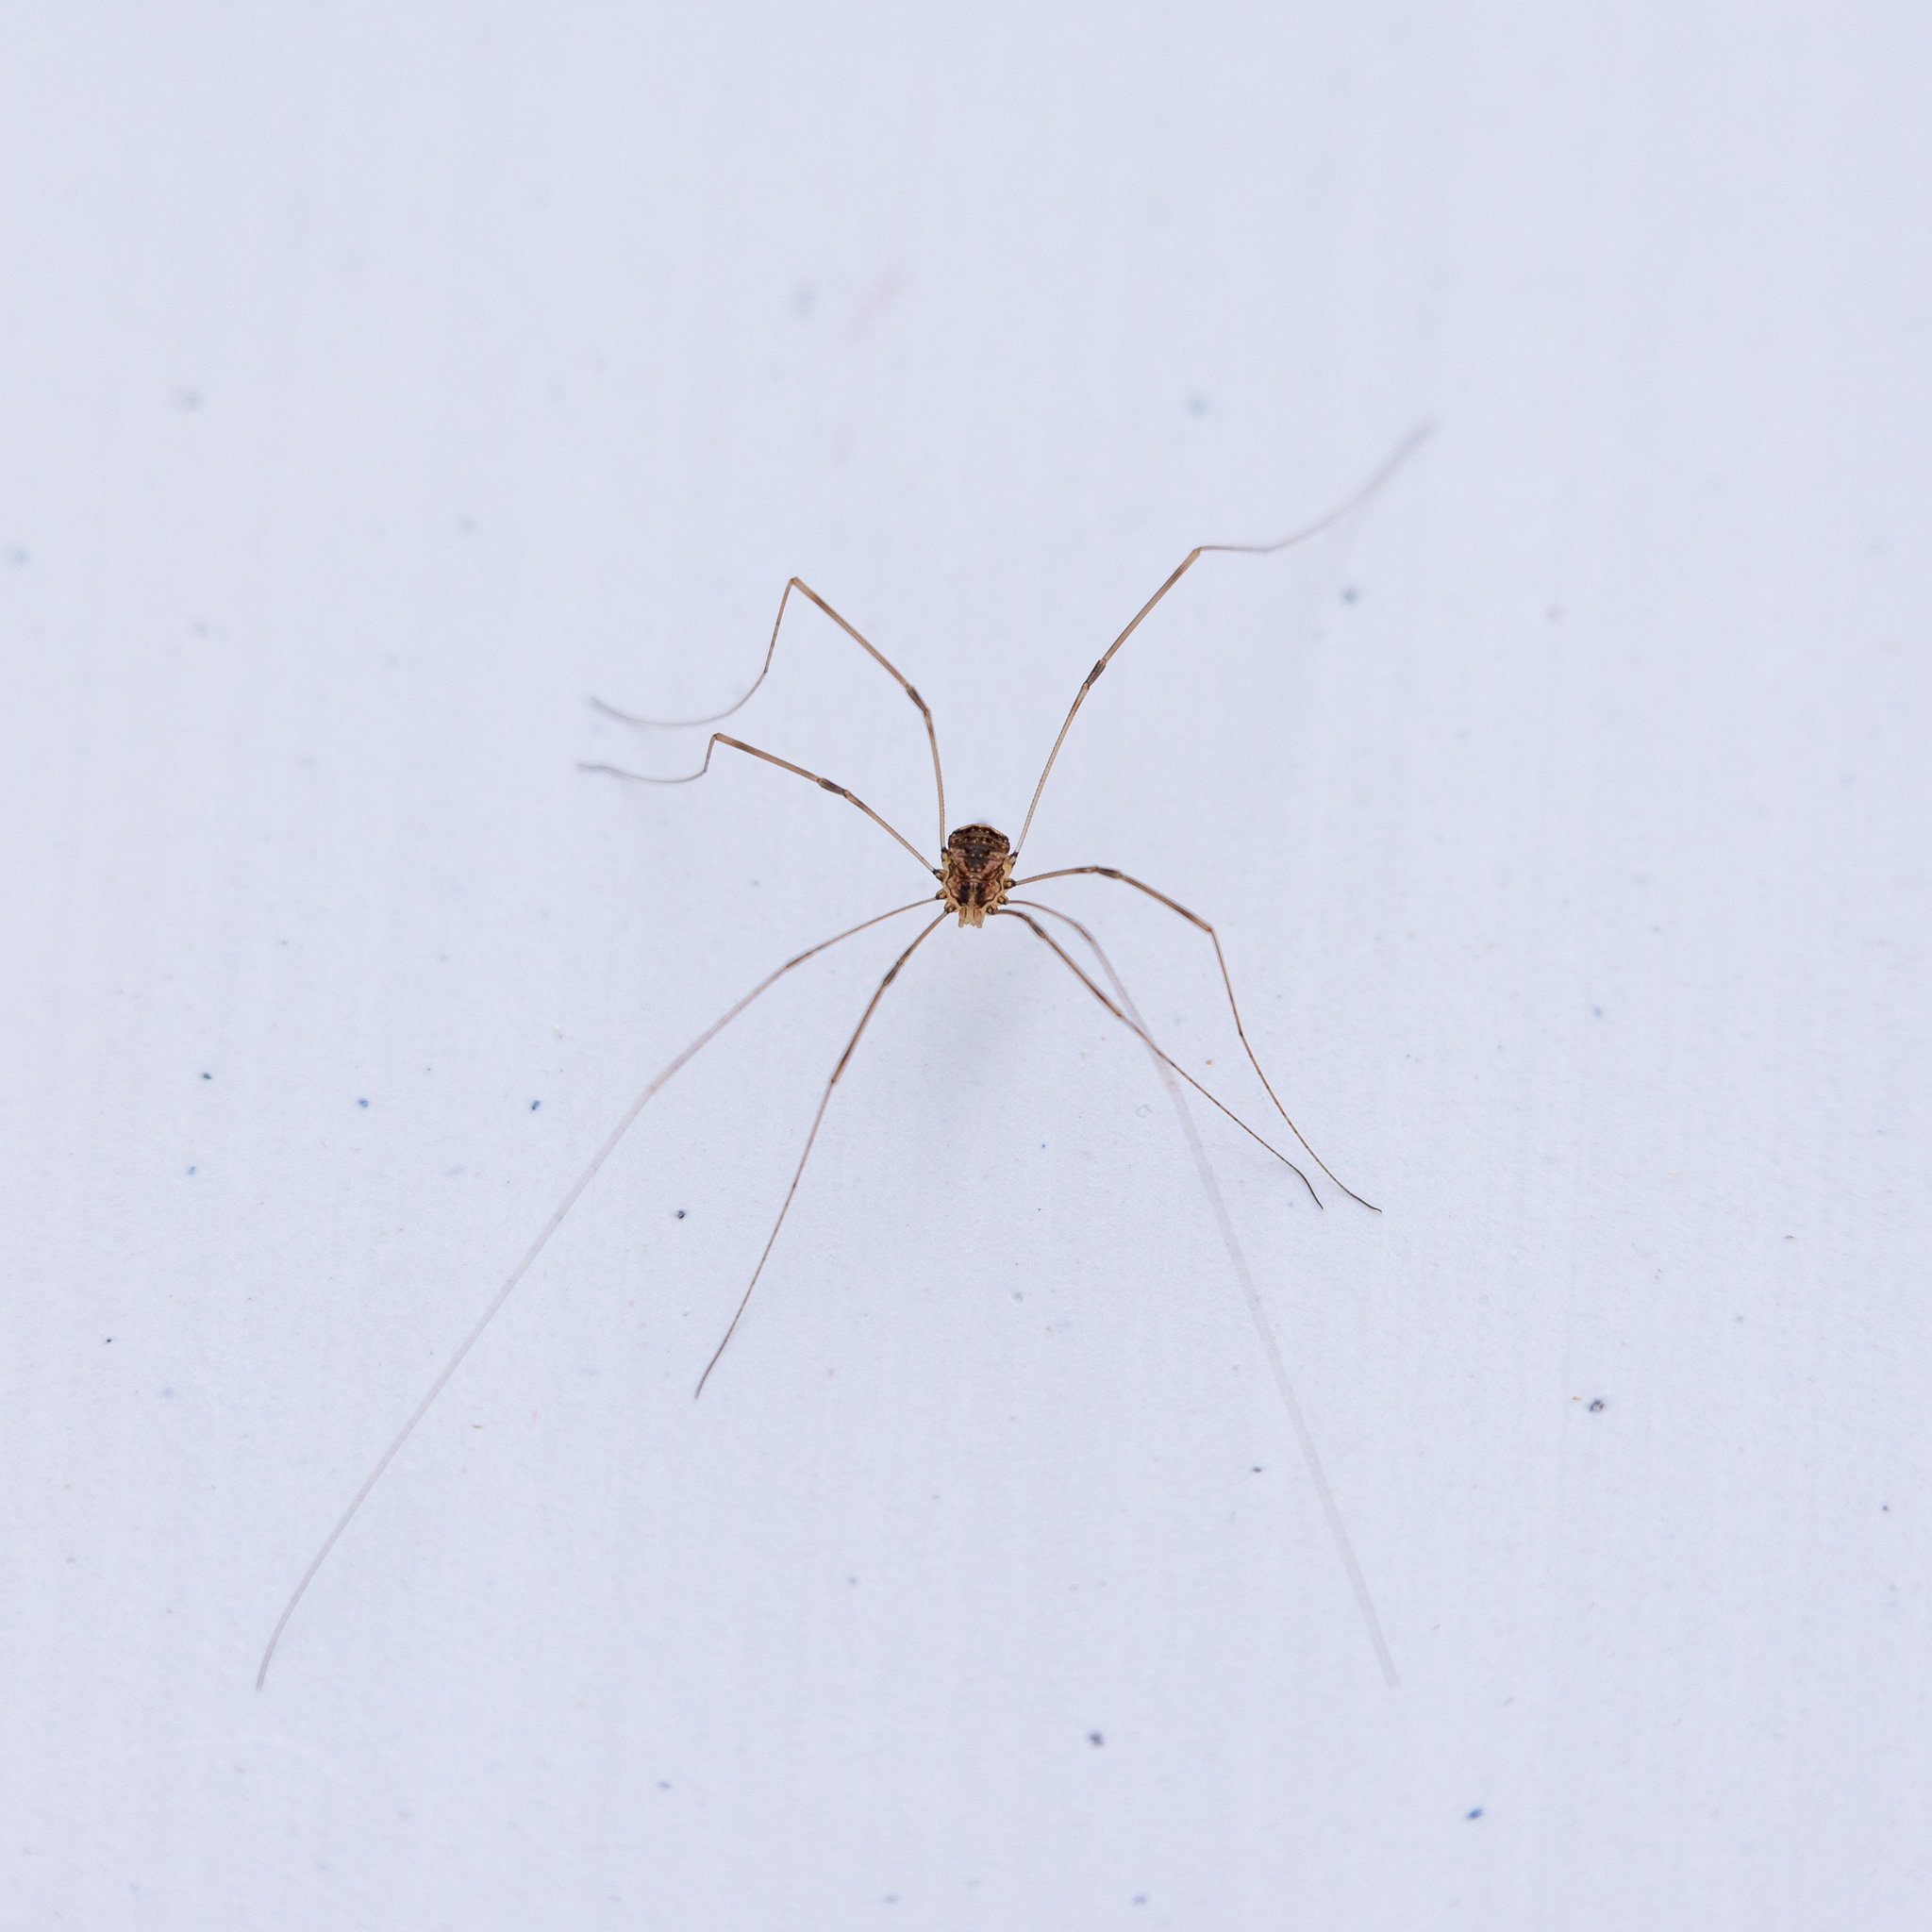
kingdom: Animalia
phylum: Arthropoda
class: Arachnida
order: Opiliones
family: Sclerosomatidae
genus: Leiobunum
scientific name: Leiobunum blackwalli
